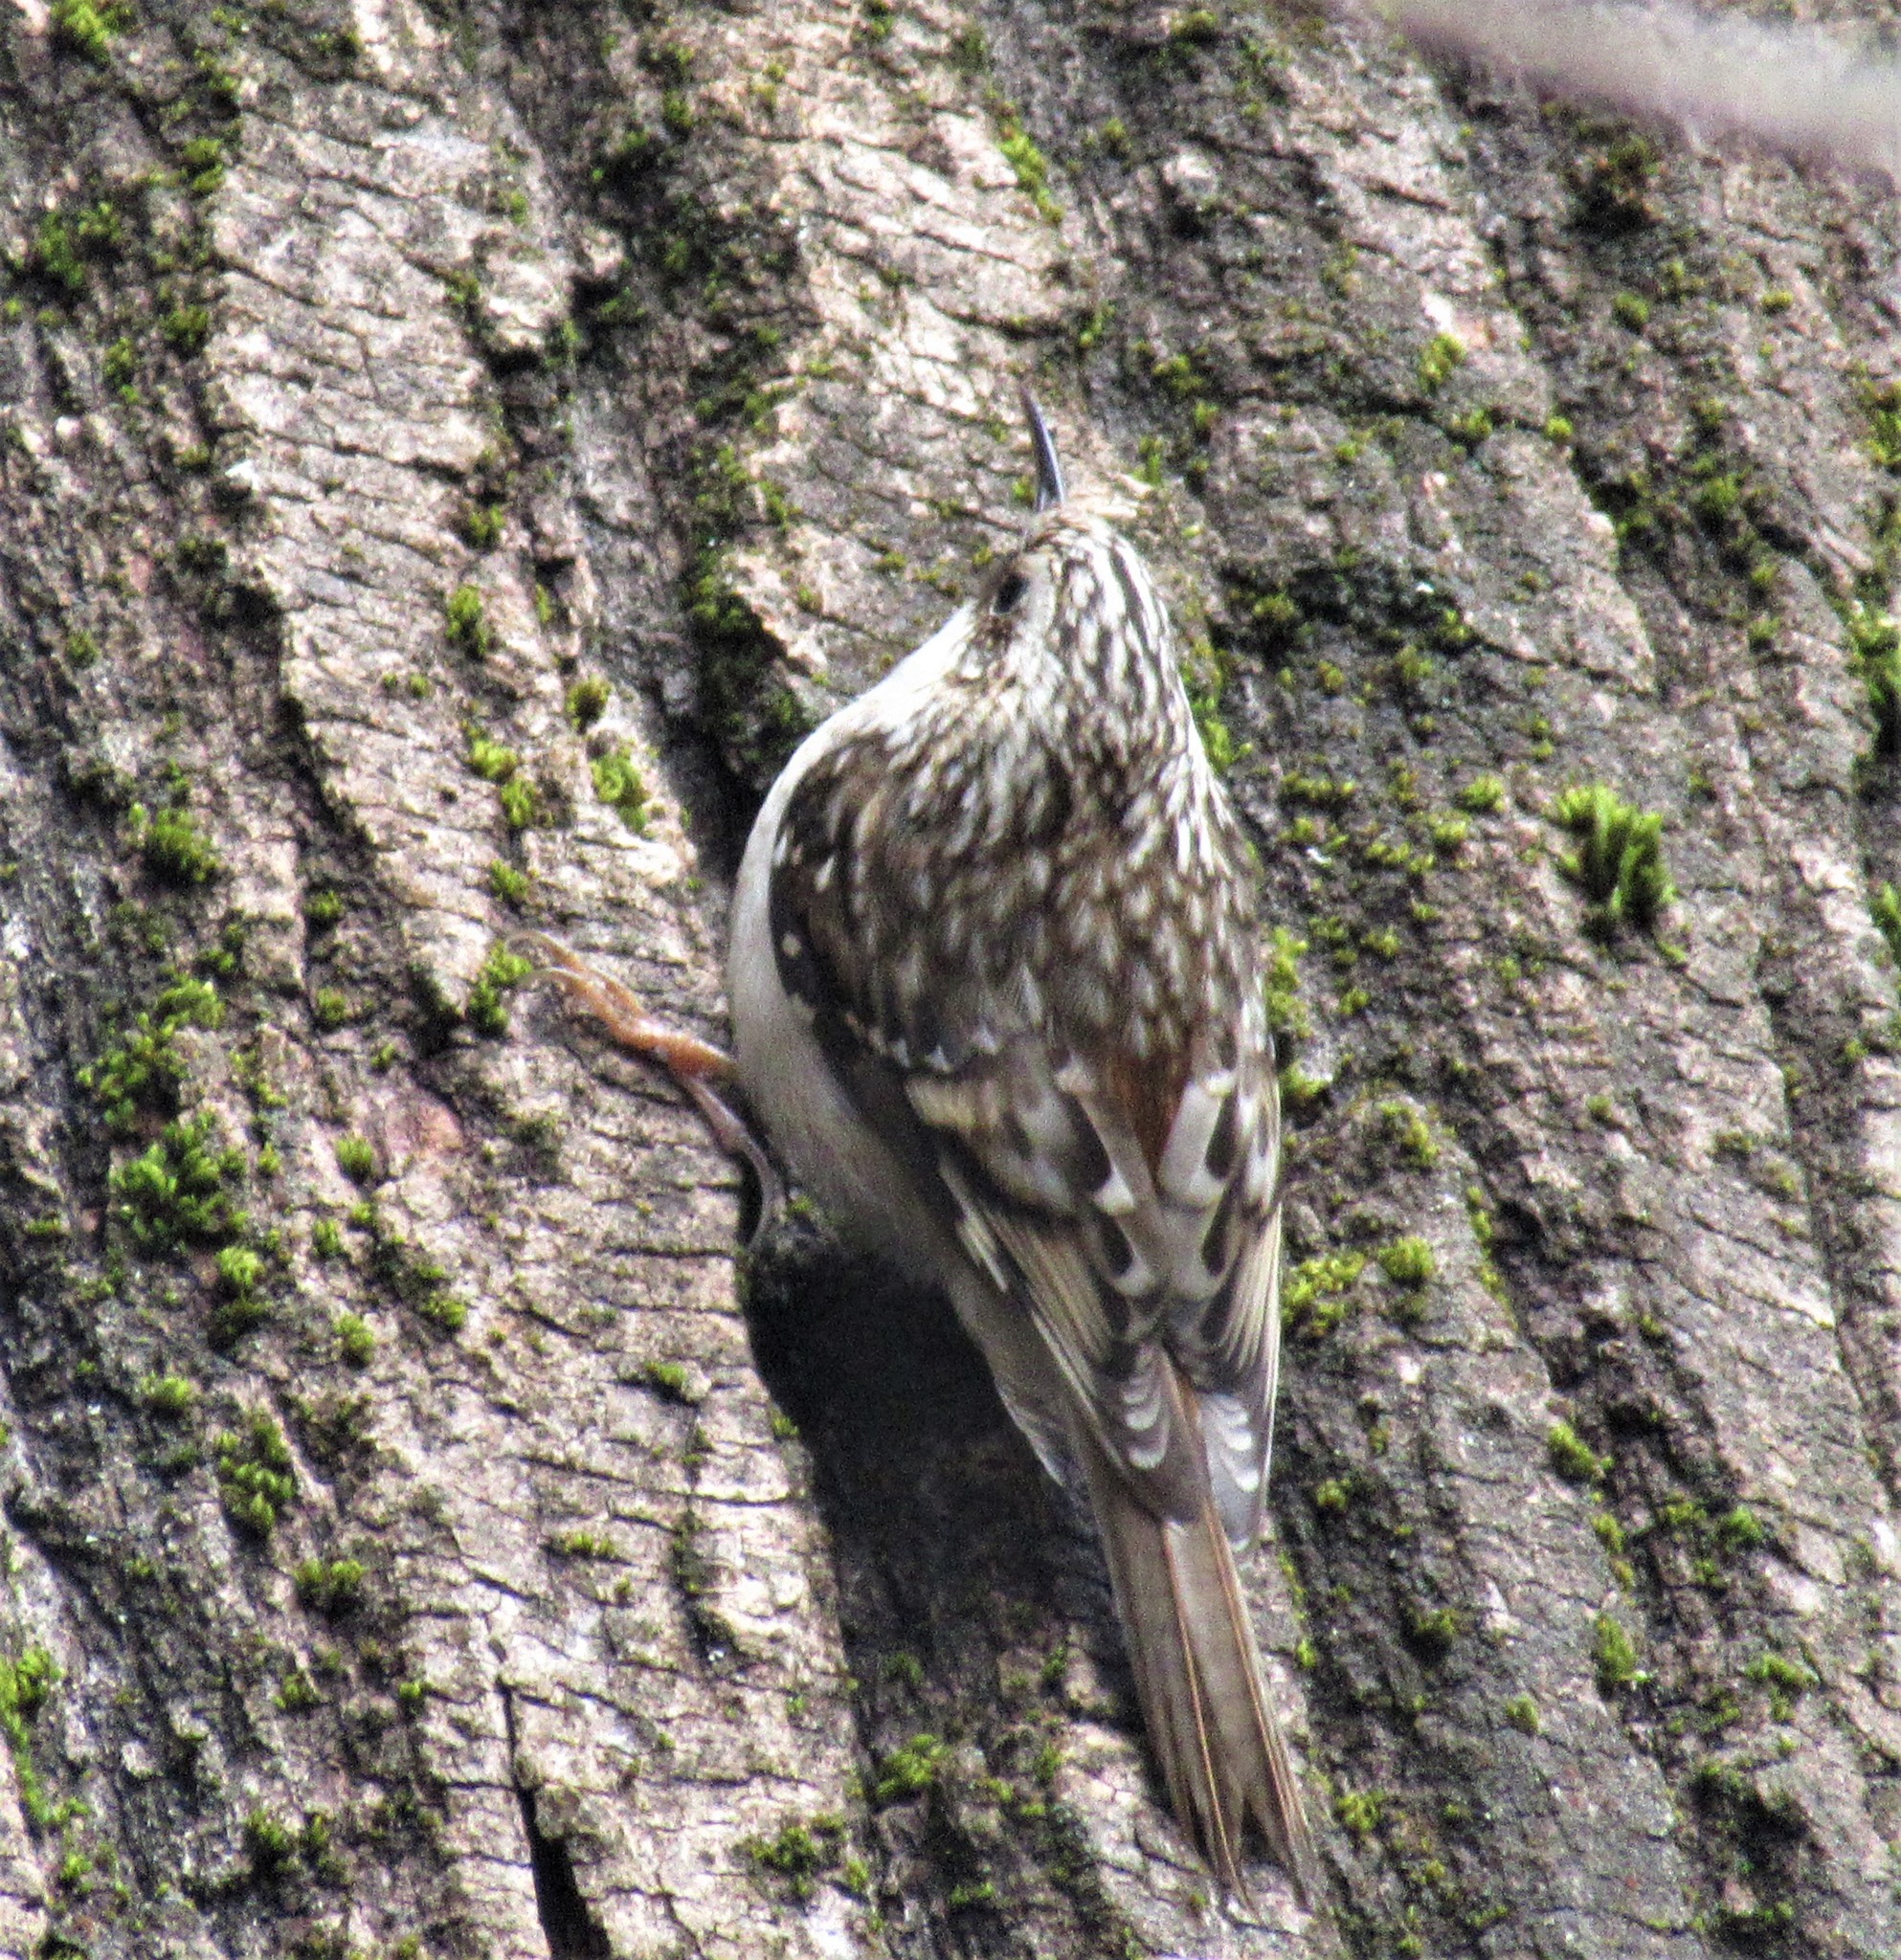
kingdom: Animalia
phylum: Chordata
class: Aves
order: Passeriformes
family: Certhiidae
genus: Certhia
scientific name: Certhia americana
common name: Brown creeper
